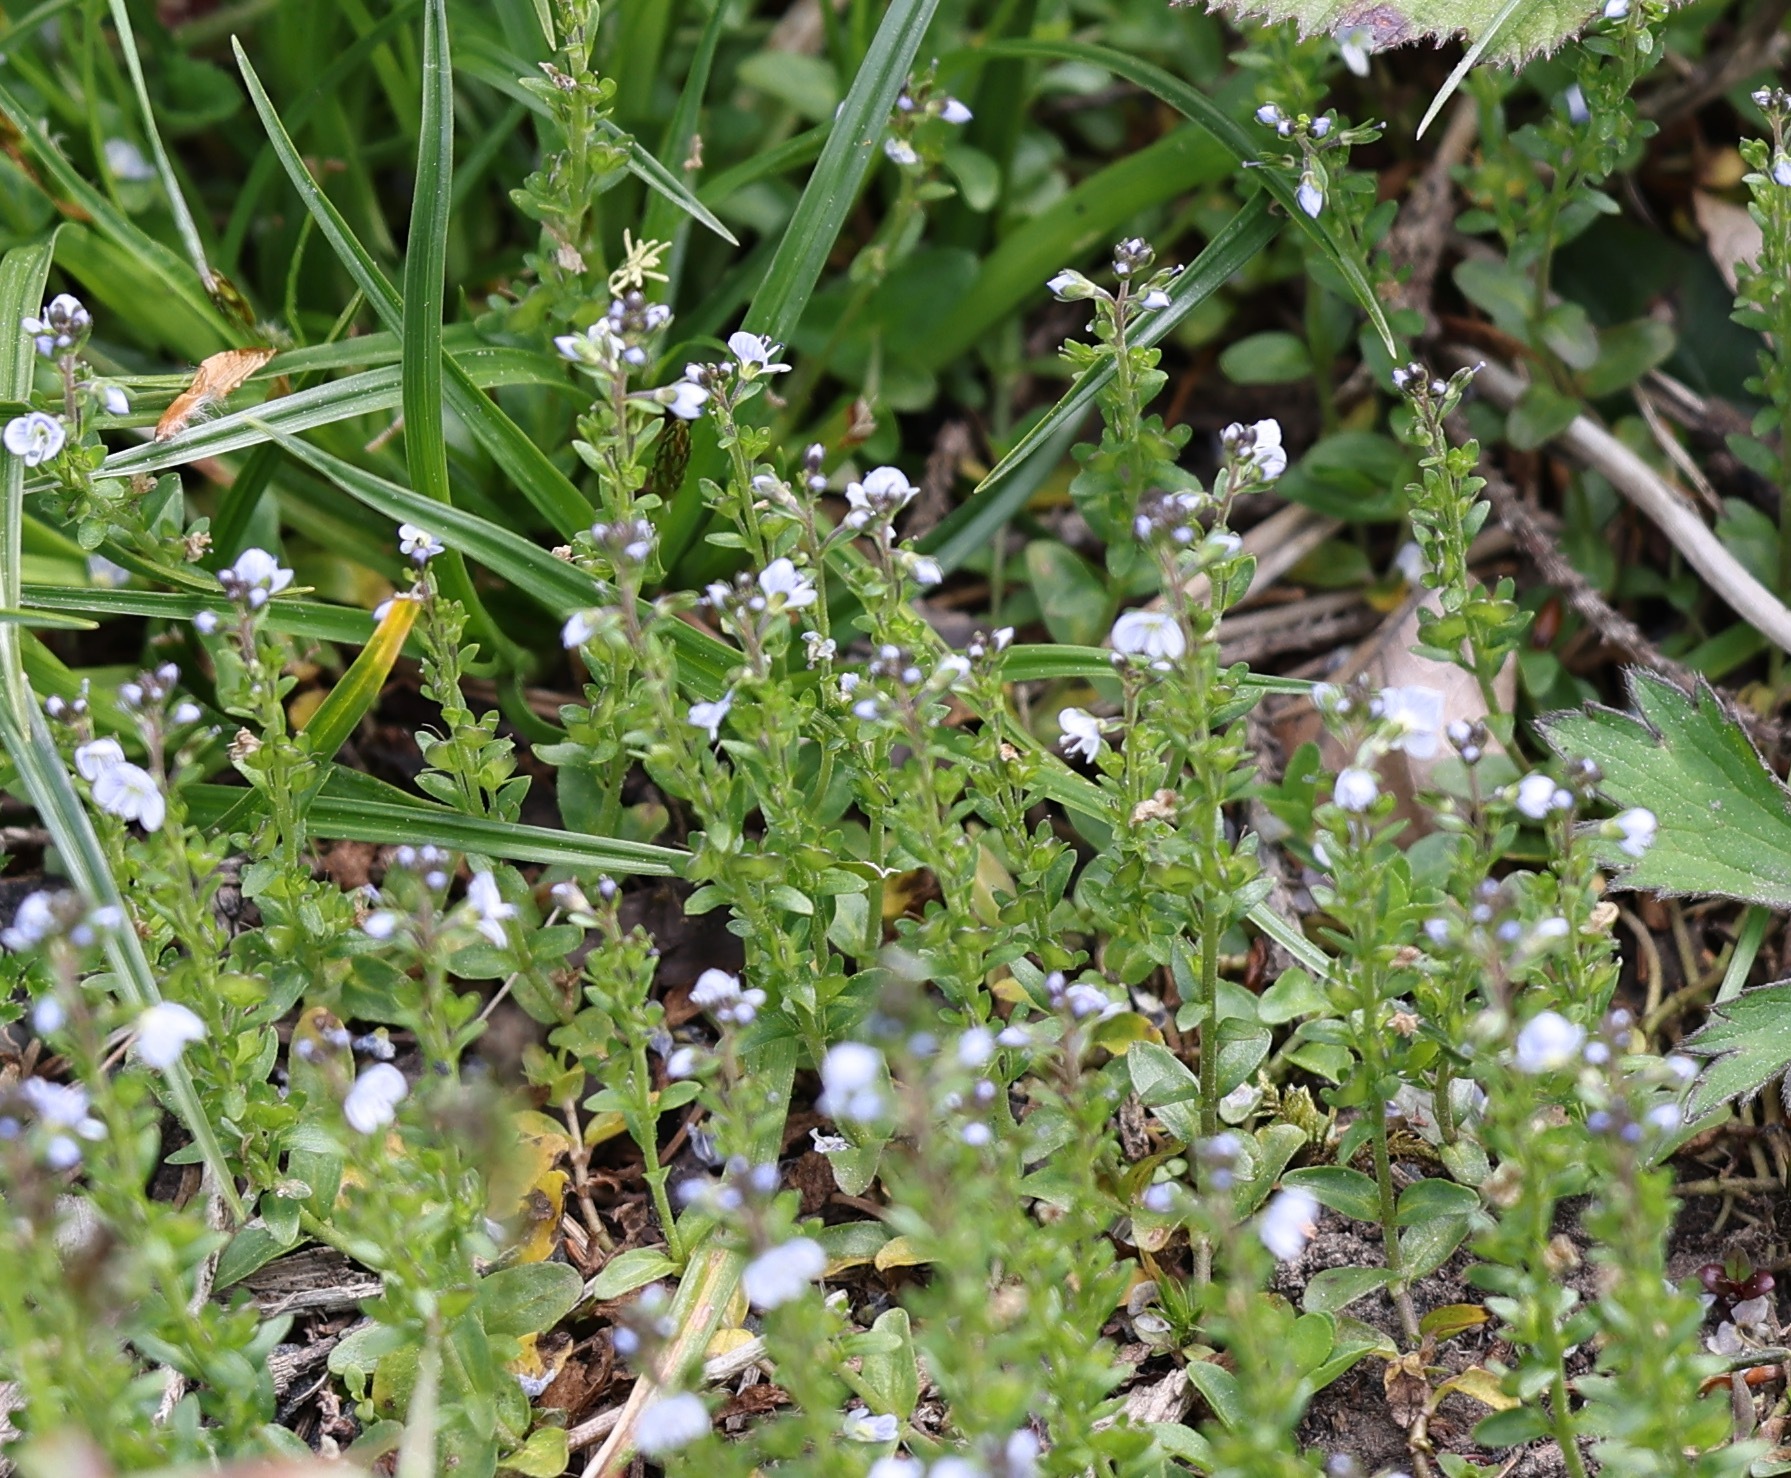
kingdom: Plantae
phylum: Tracheophyta
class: Magnoliopsida
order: Lamiales
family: Plantaginaceae
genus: Veronica
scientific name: Veronica serpyllifolia
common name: Thyme-leaved speedwell
